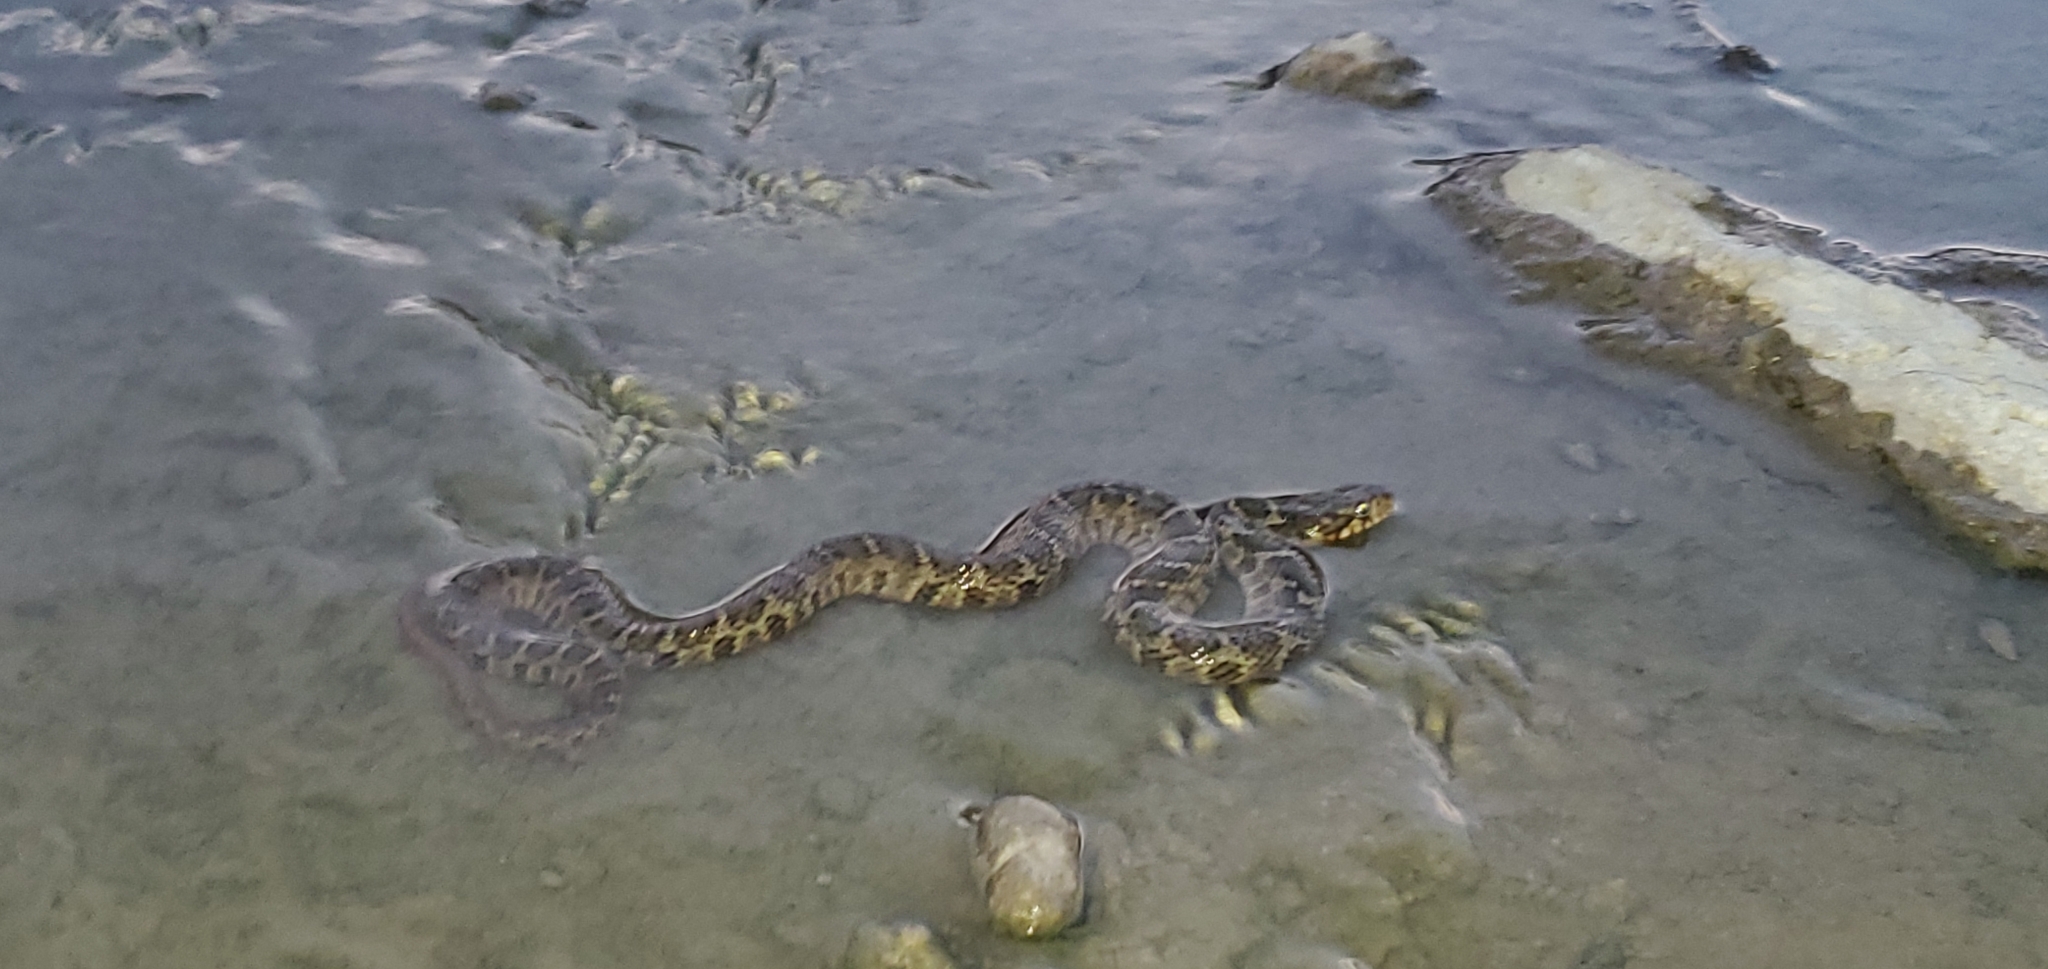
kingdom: Animalia
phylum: Chordata
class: Squamata
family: Colubridae
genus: Nerodia
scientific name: Nerodia erythrogaster
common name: Plainbelly water snake
